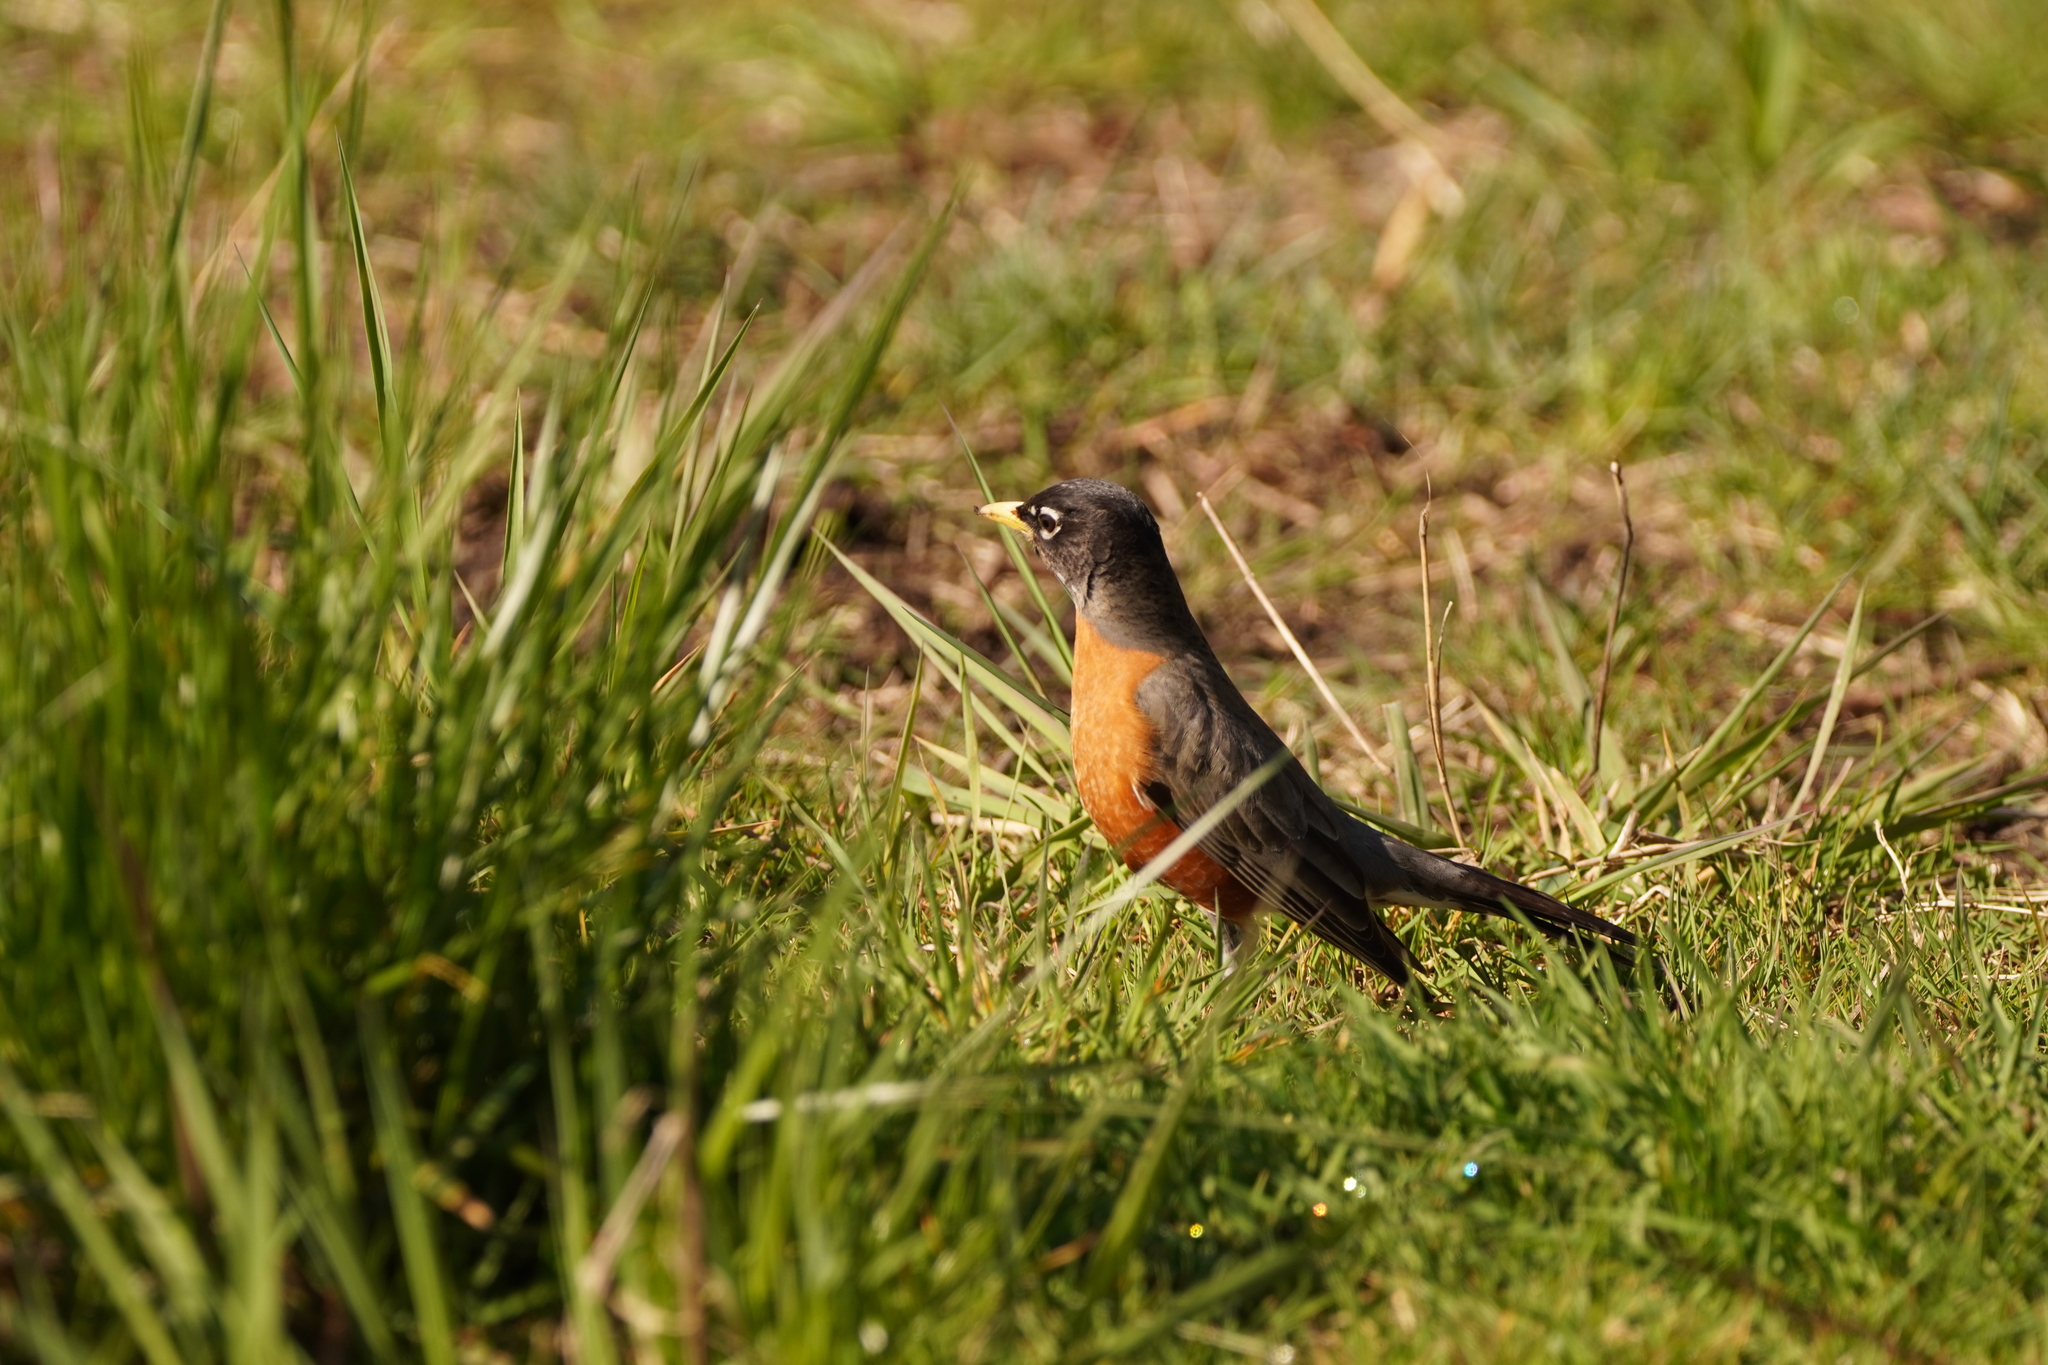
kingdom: Animalia
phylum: Chordata
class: Aves
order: Passeriformes
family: Turdidae
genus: Turdus
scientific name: Turdus migratorius
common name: American robin
